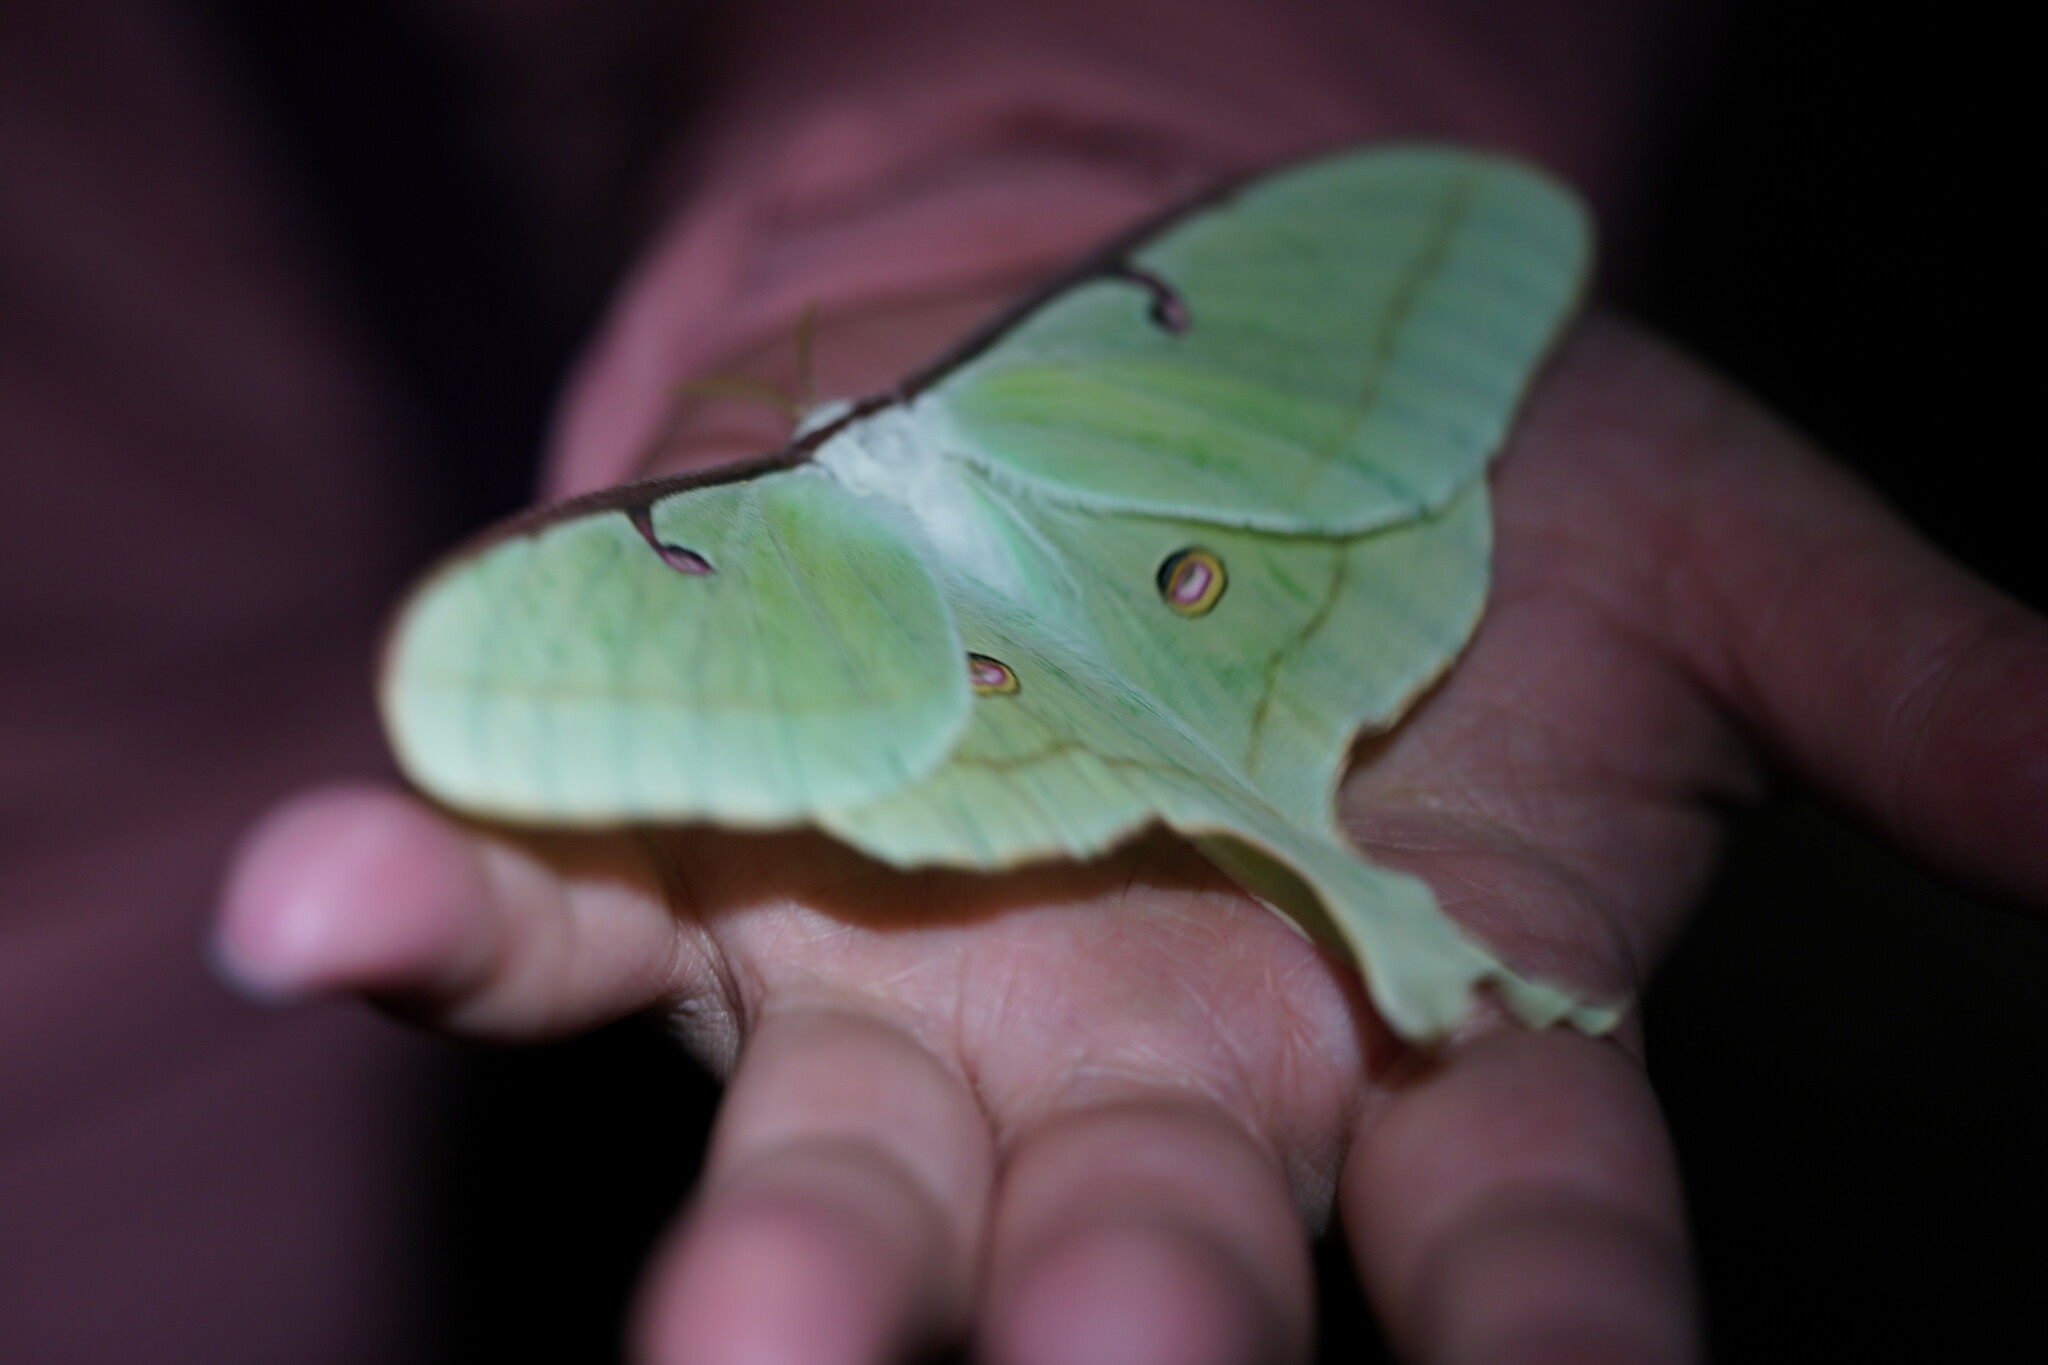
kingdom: Animalia
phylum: Arthropoda
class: Insecta
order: Lepidoptera
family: Saturniidae
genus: Actias
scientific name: Actias luna
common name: Luna moth
